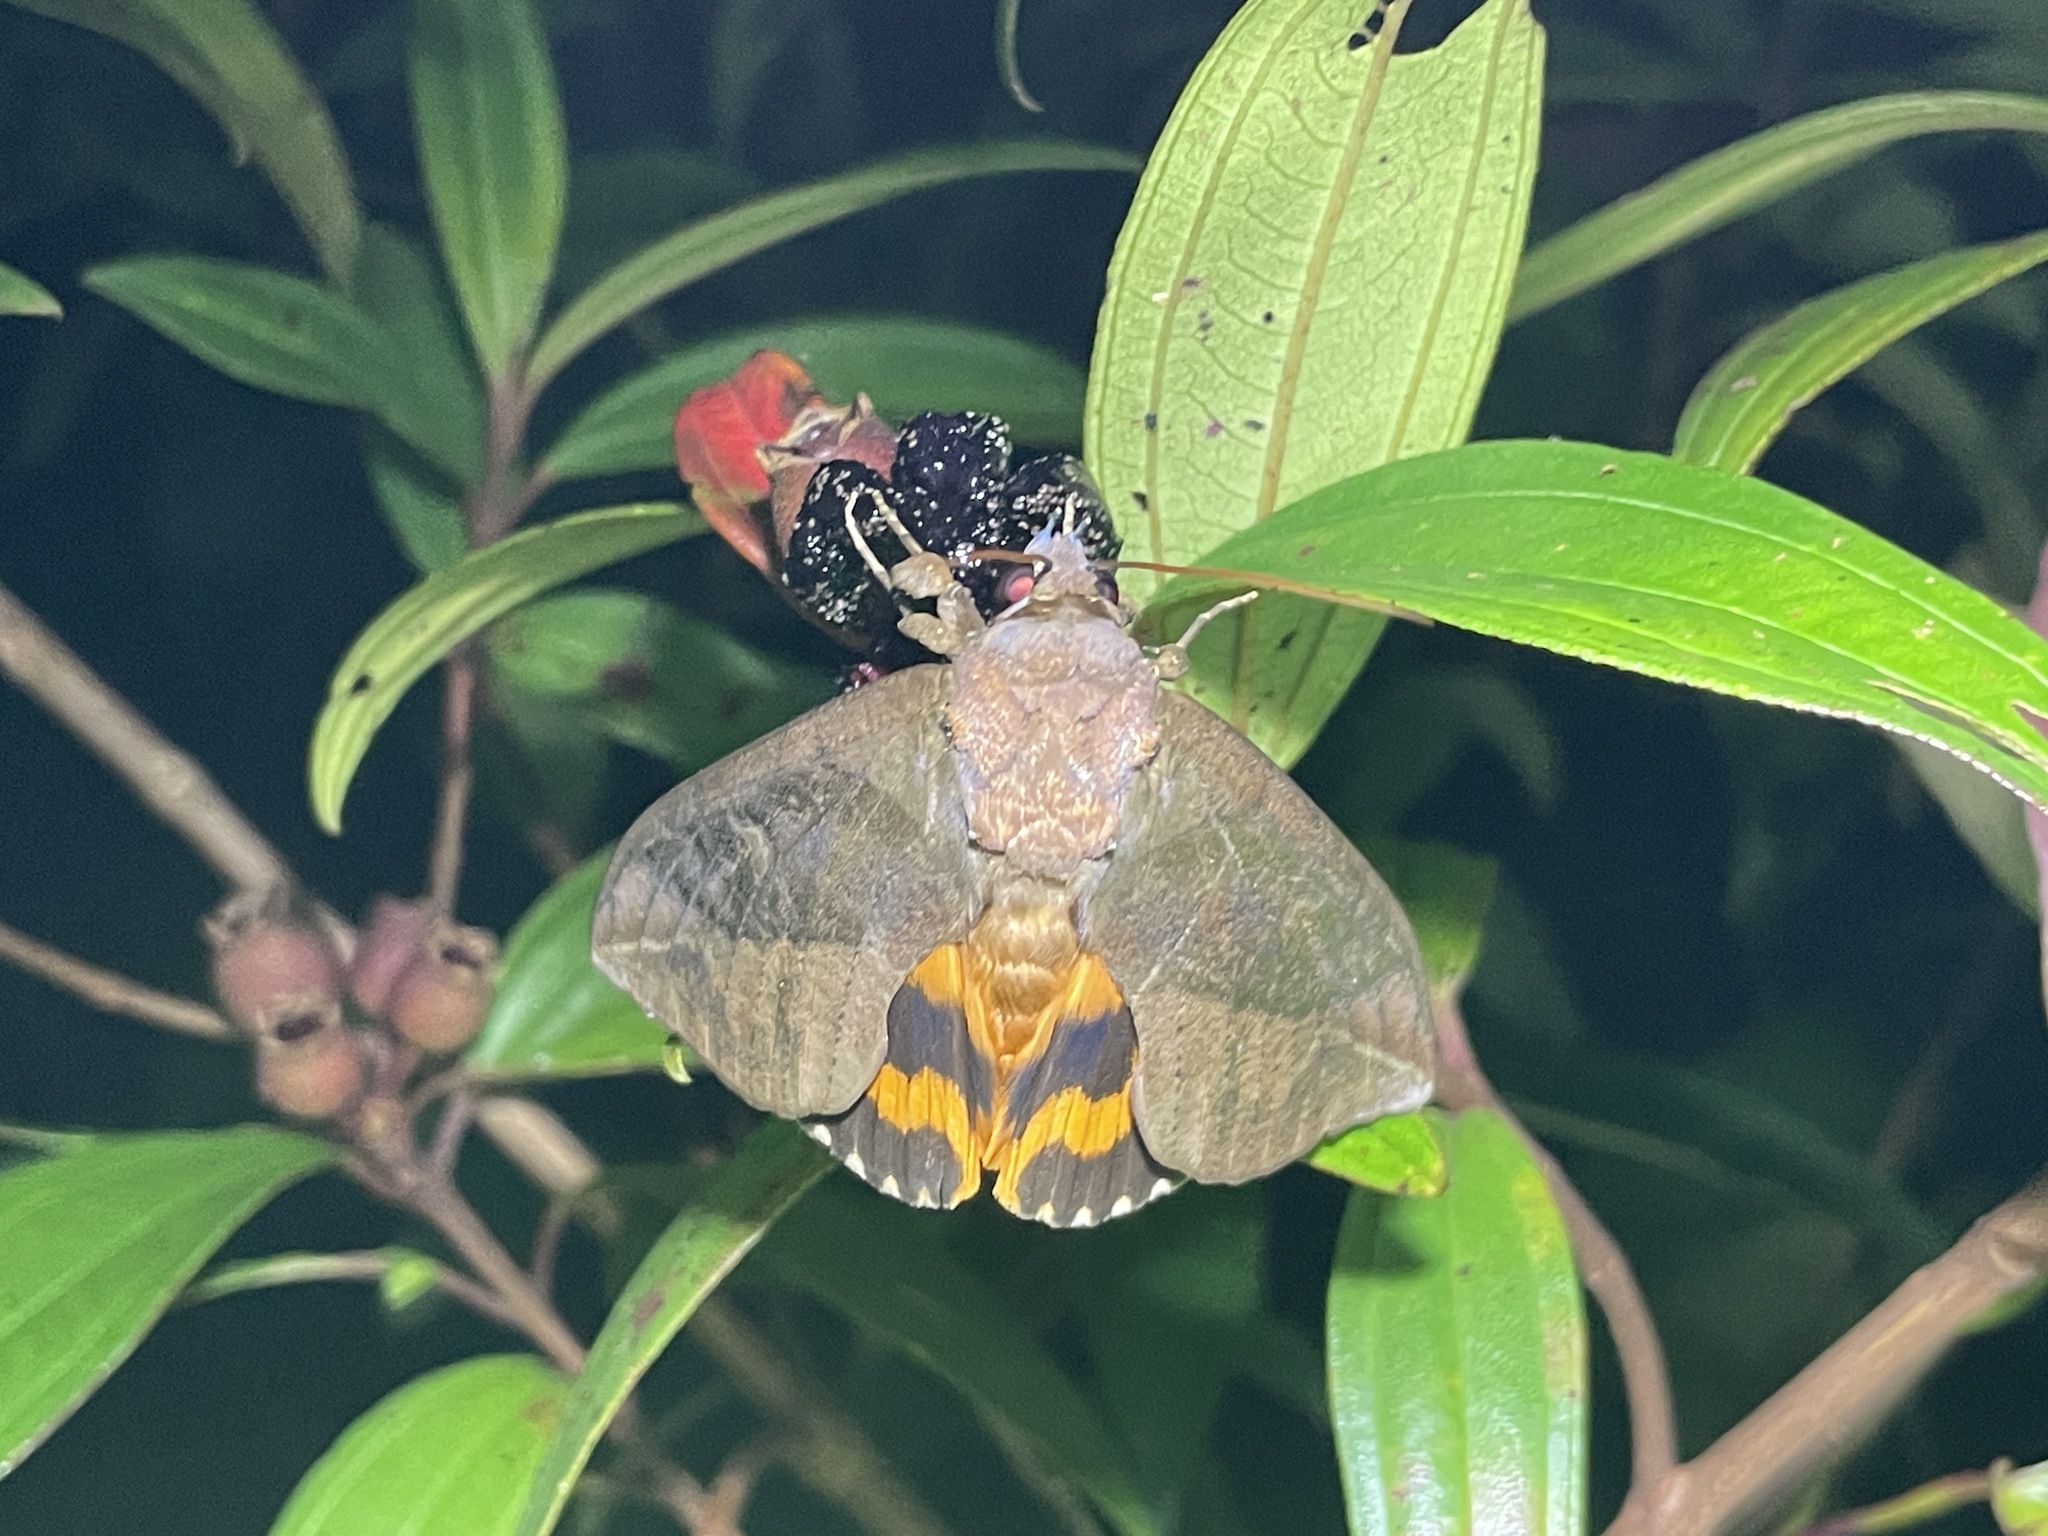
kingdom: Animalia
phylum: Arthropoda
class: Insecta
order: Lepidoptera
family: Erebidae
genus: Eudocima
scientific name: Eudocima phalonia
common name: Wasp
